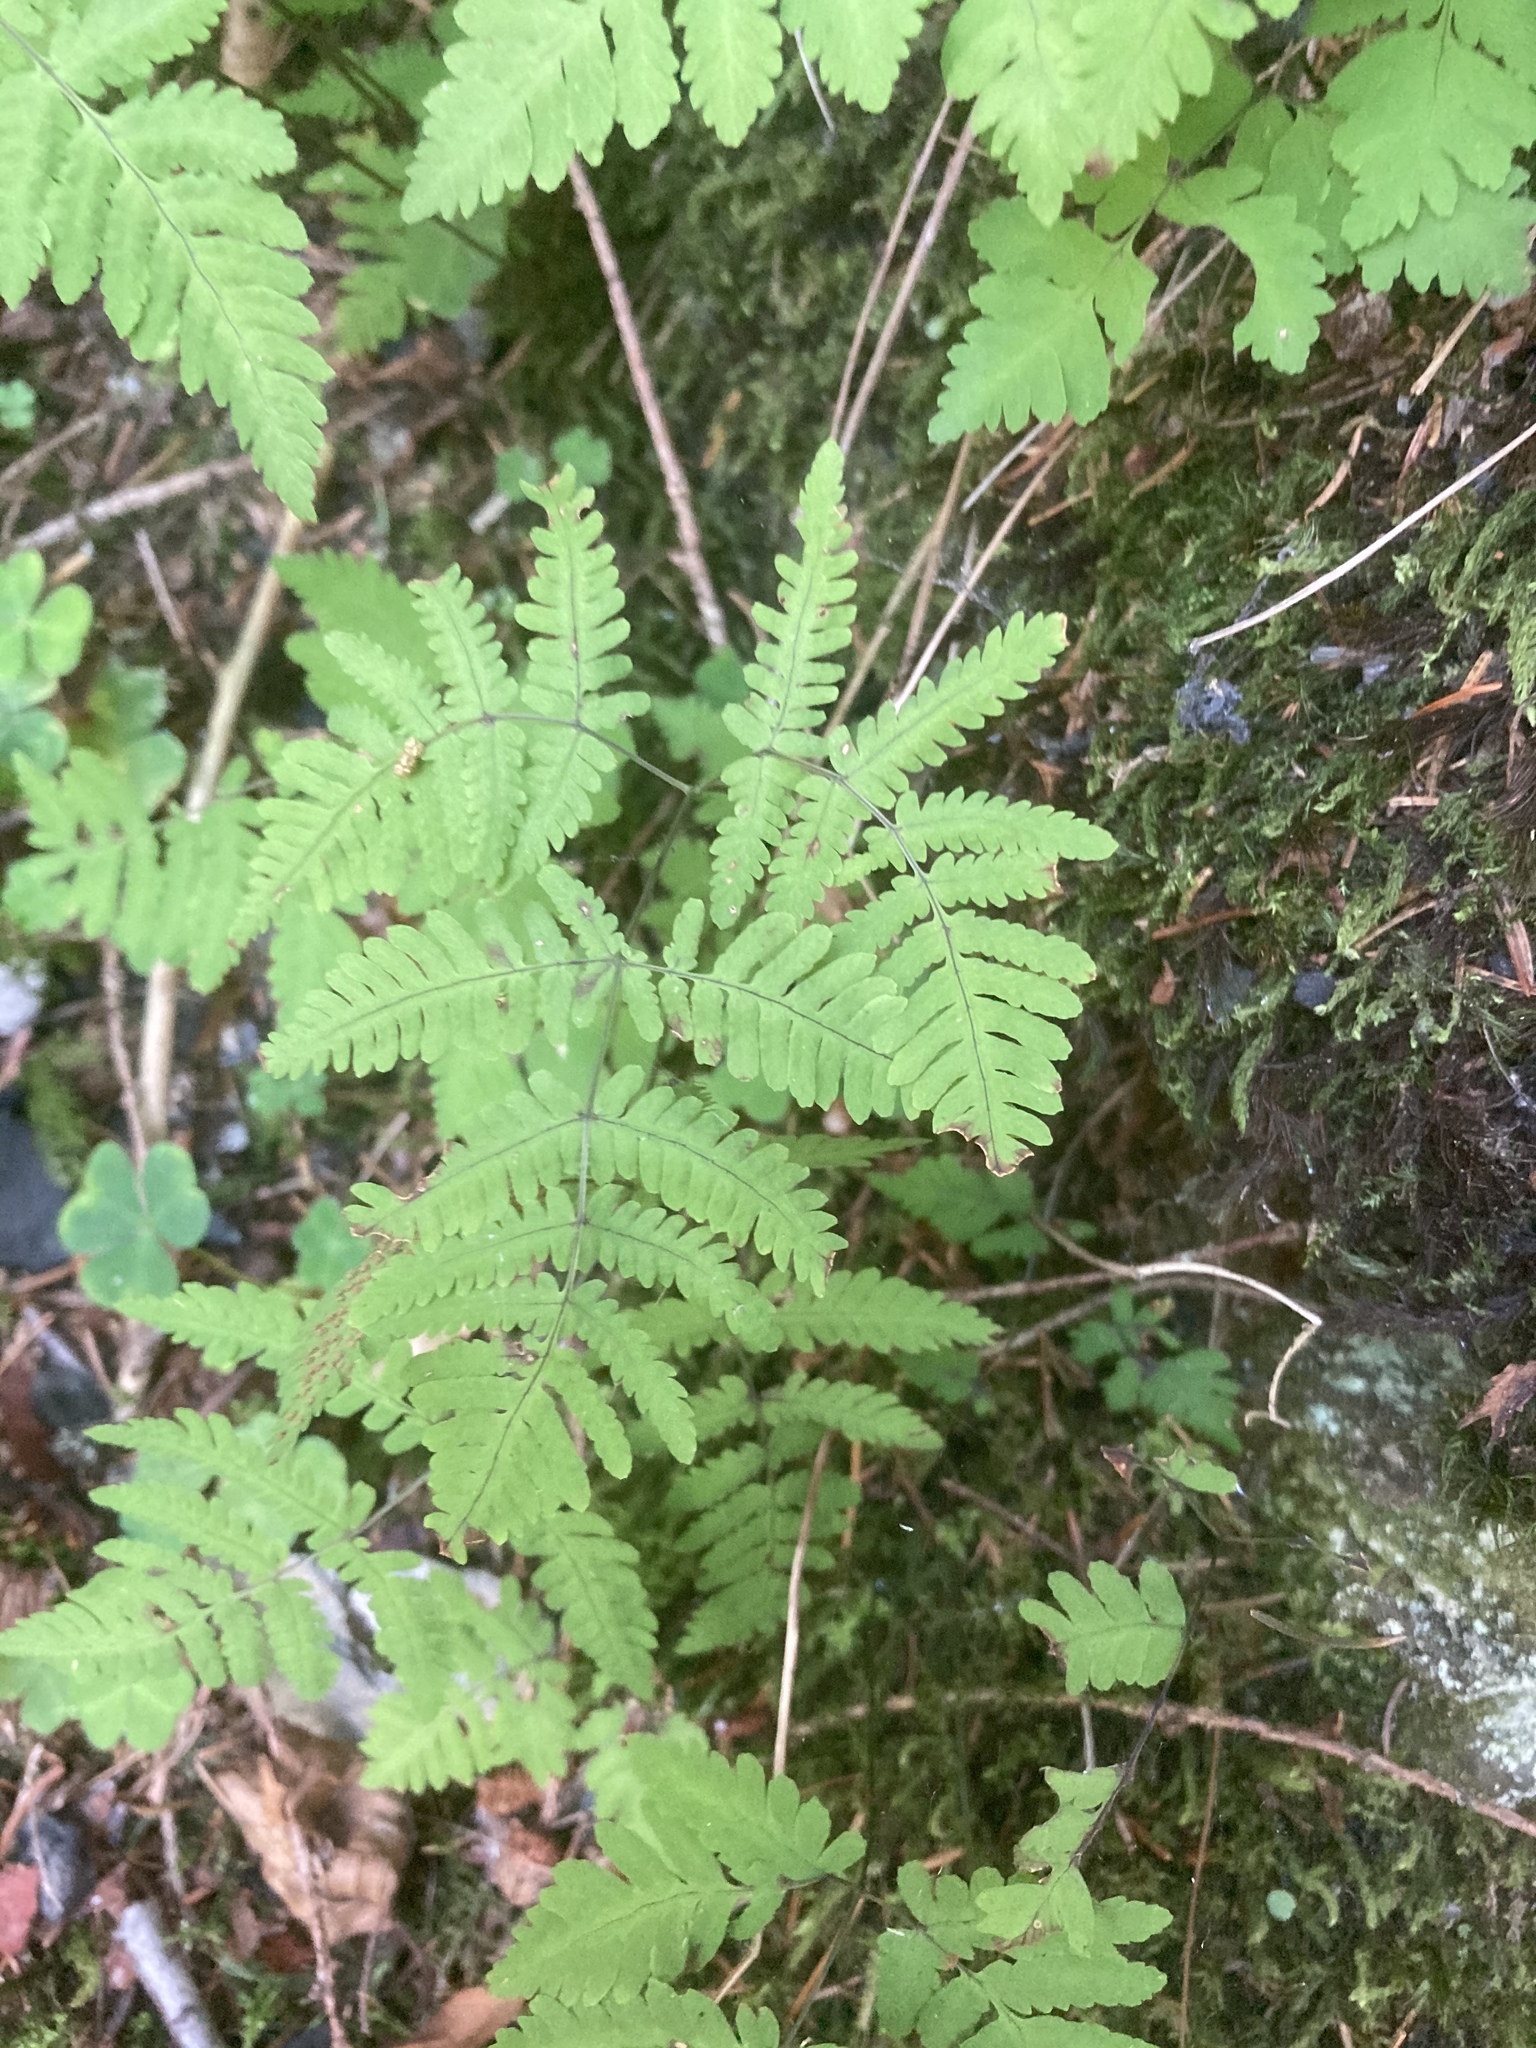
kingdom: Plantae
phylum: Tracheophyta
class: Polypodiopsida
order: Polypodiales
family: Cystopteridaceae
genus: Gymnocarpium
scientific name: Gymnocarpium dryopteris
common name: Oak fern
